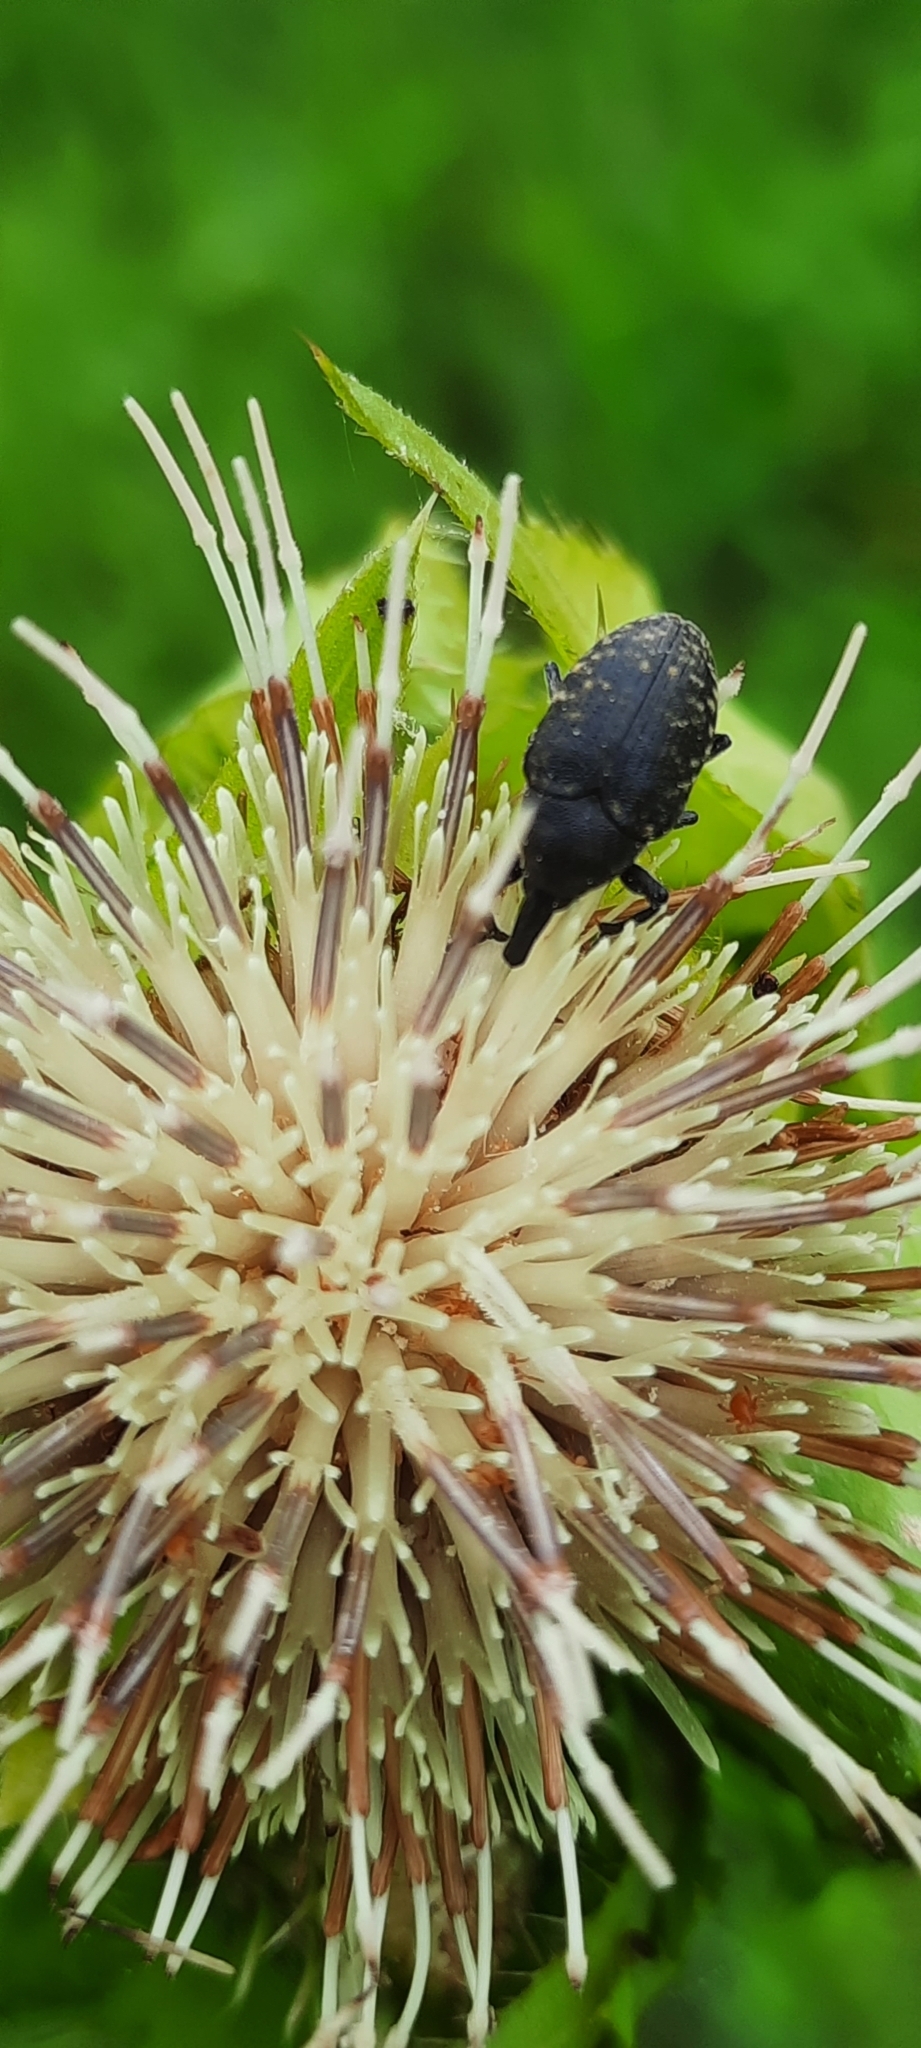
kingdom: Animalia
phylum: Arthropoda
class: Insecta
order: Coleoptera
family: Curculionidae
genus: Larinus
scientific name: Larinus turbinatus
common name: Weevil
